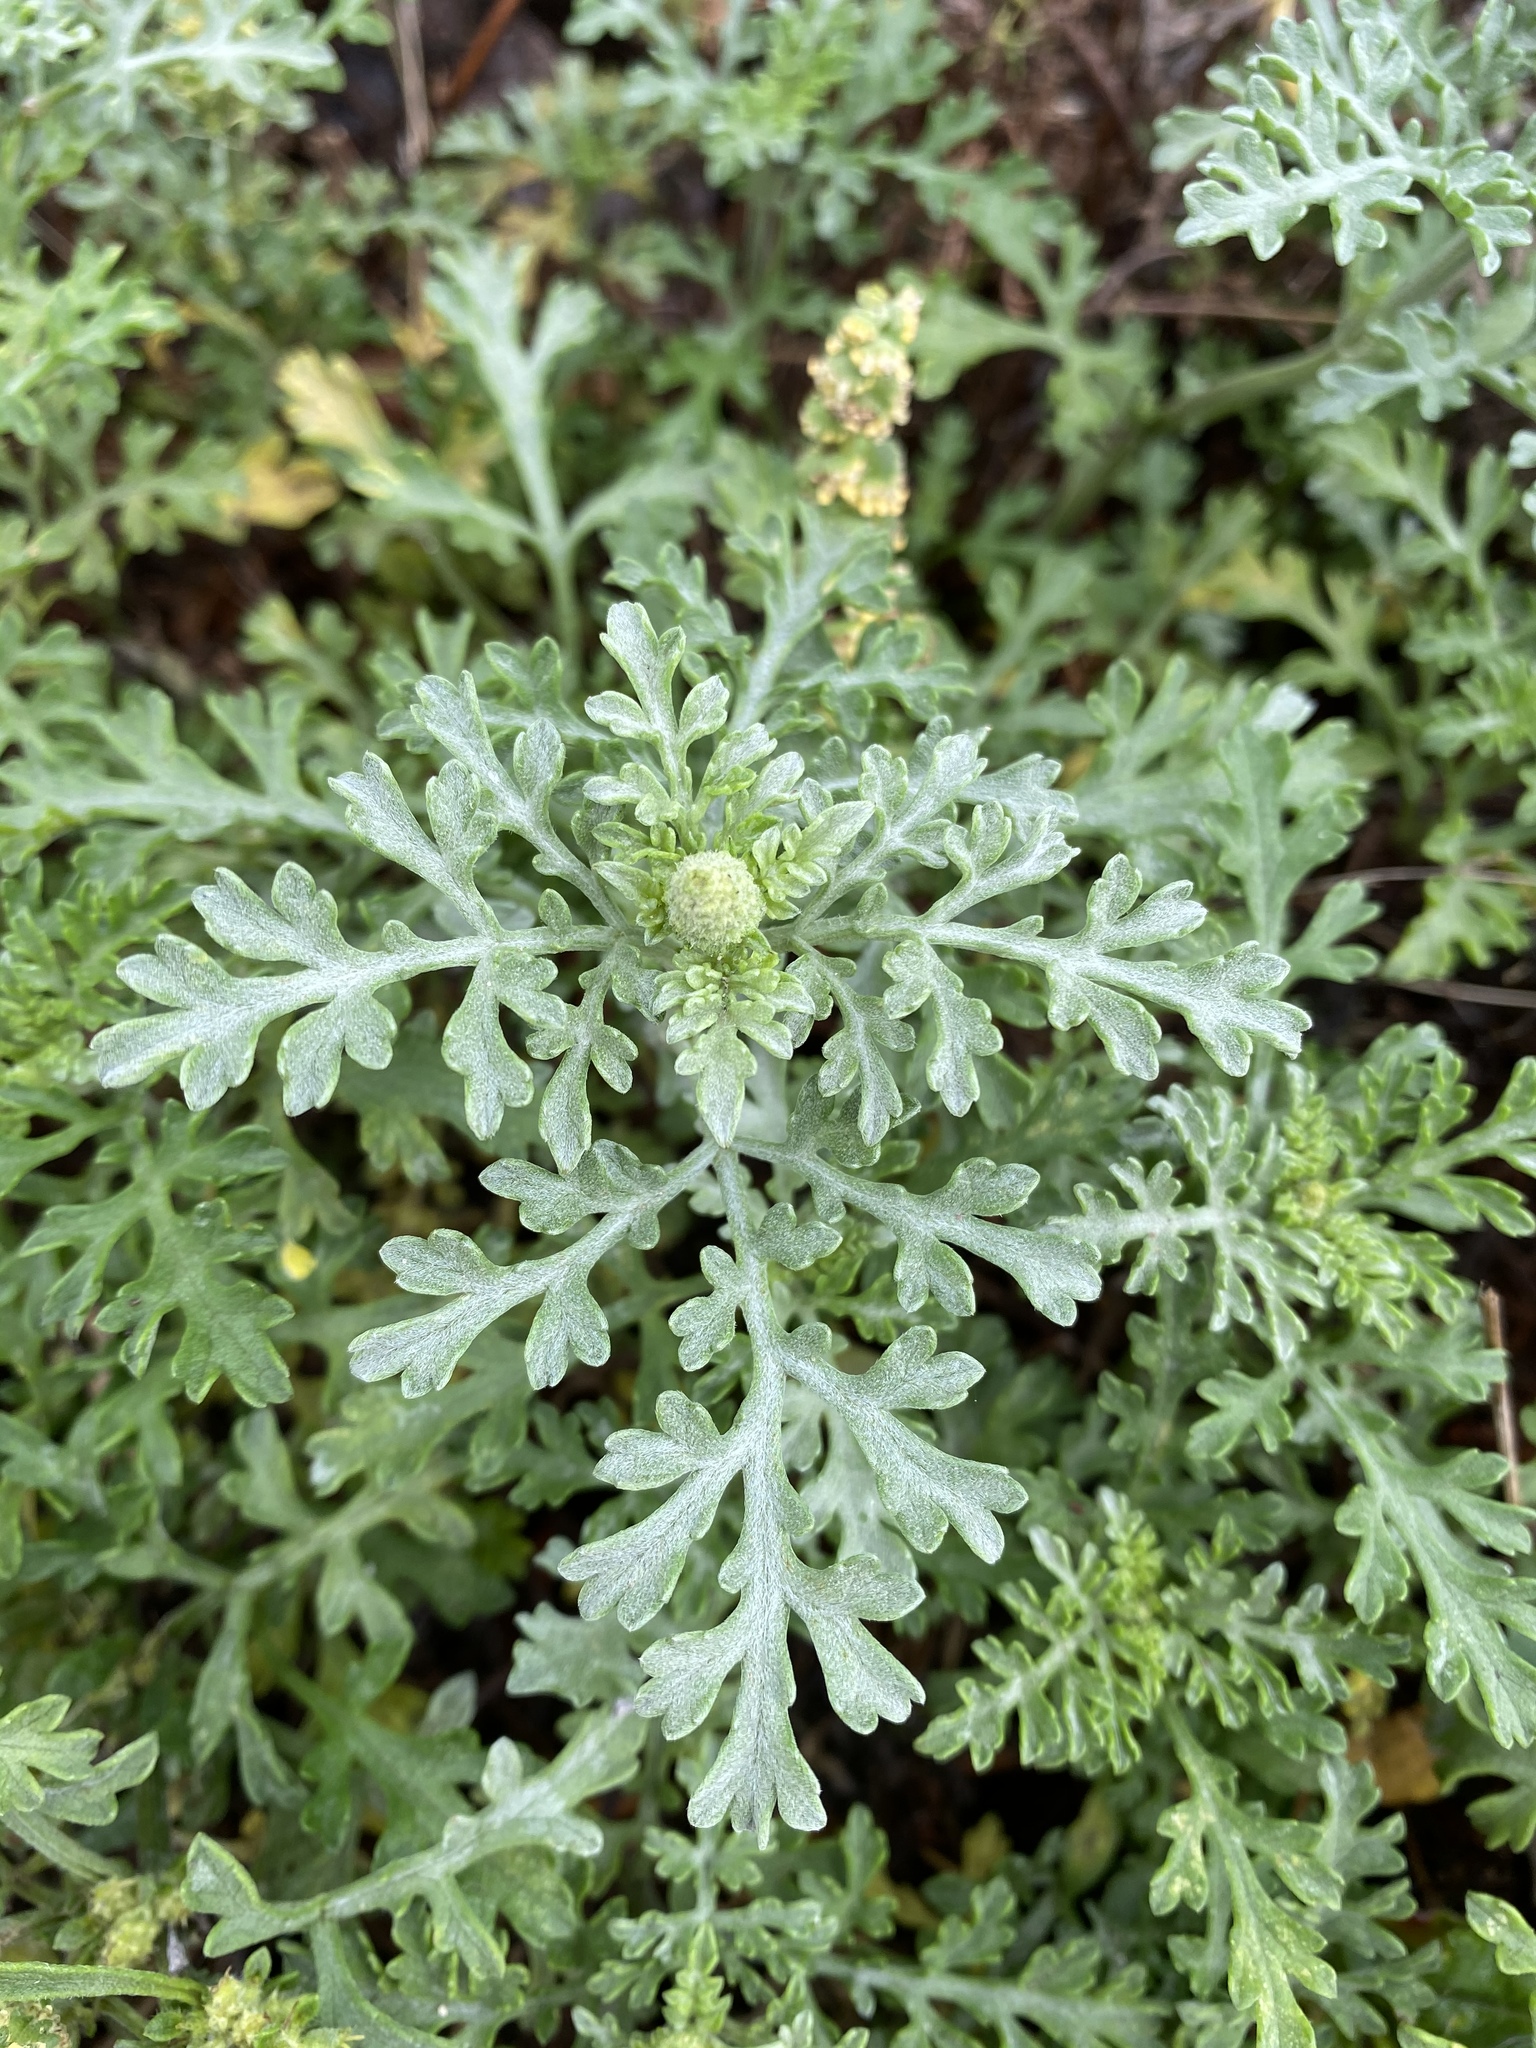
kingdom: Plantae
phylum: Tracheophyta
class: Magnoliopsida
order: Asterales
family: Asteraceae
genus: Ambrosia
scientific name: Ambrosia chamissonis
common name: Beachbur
